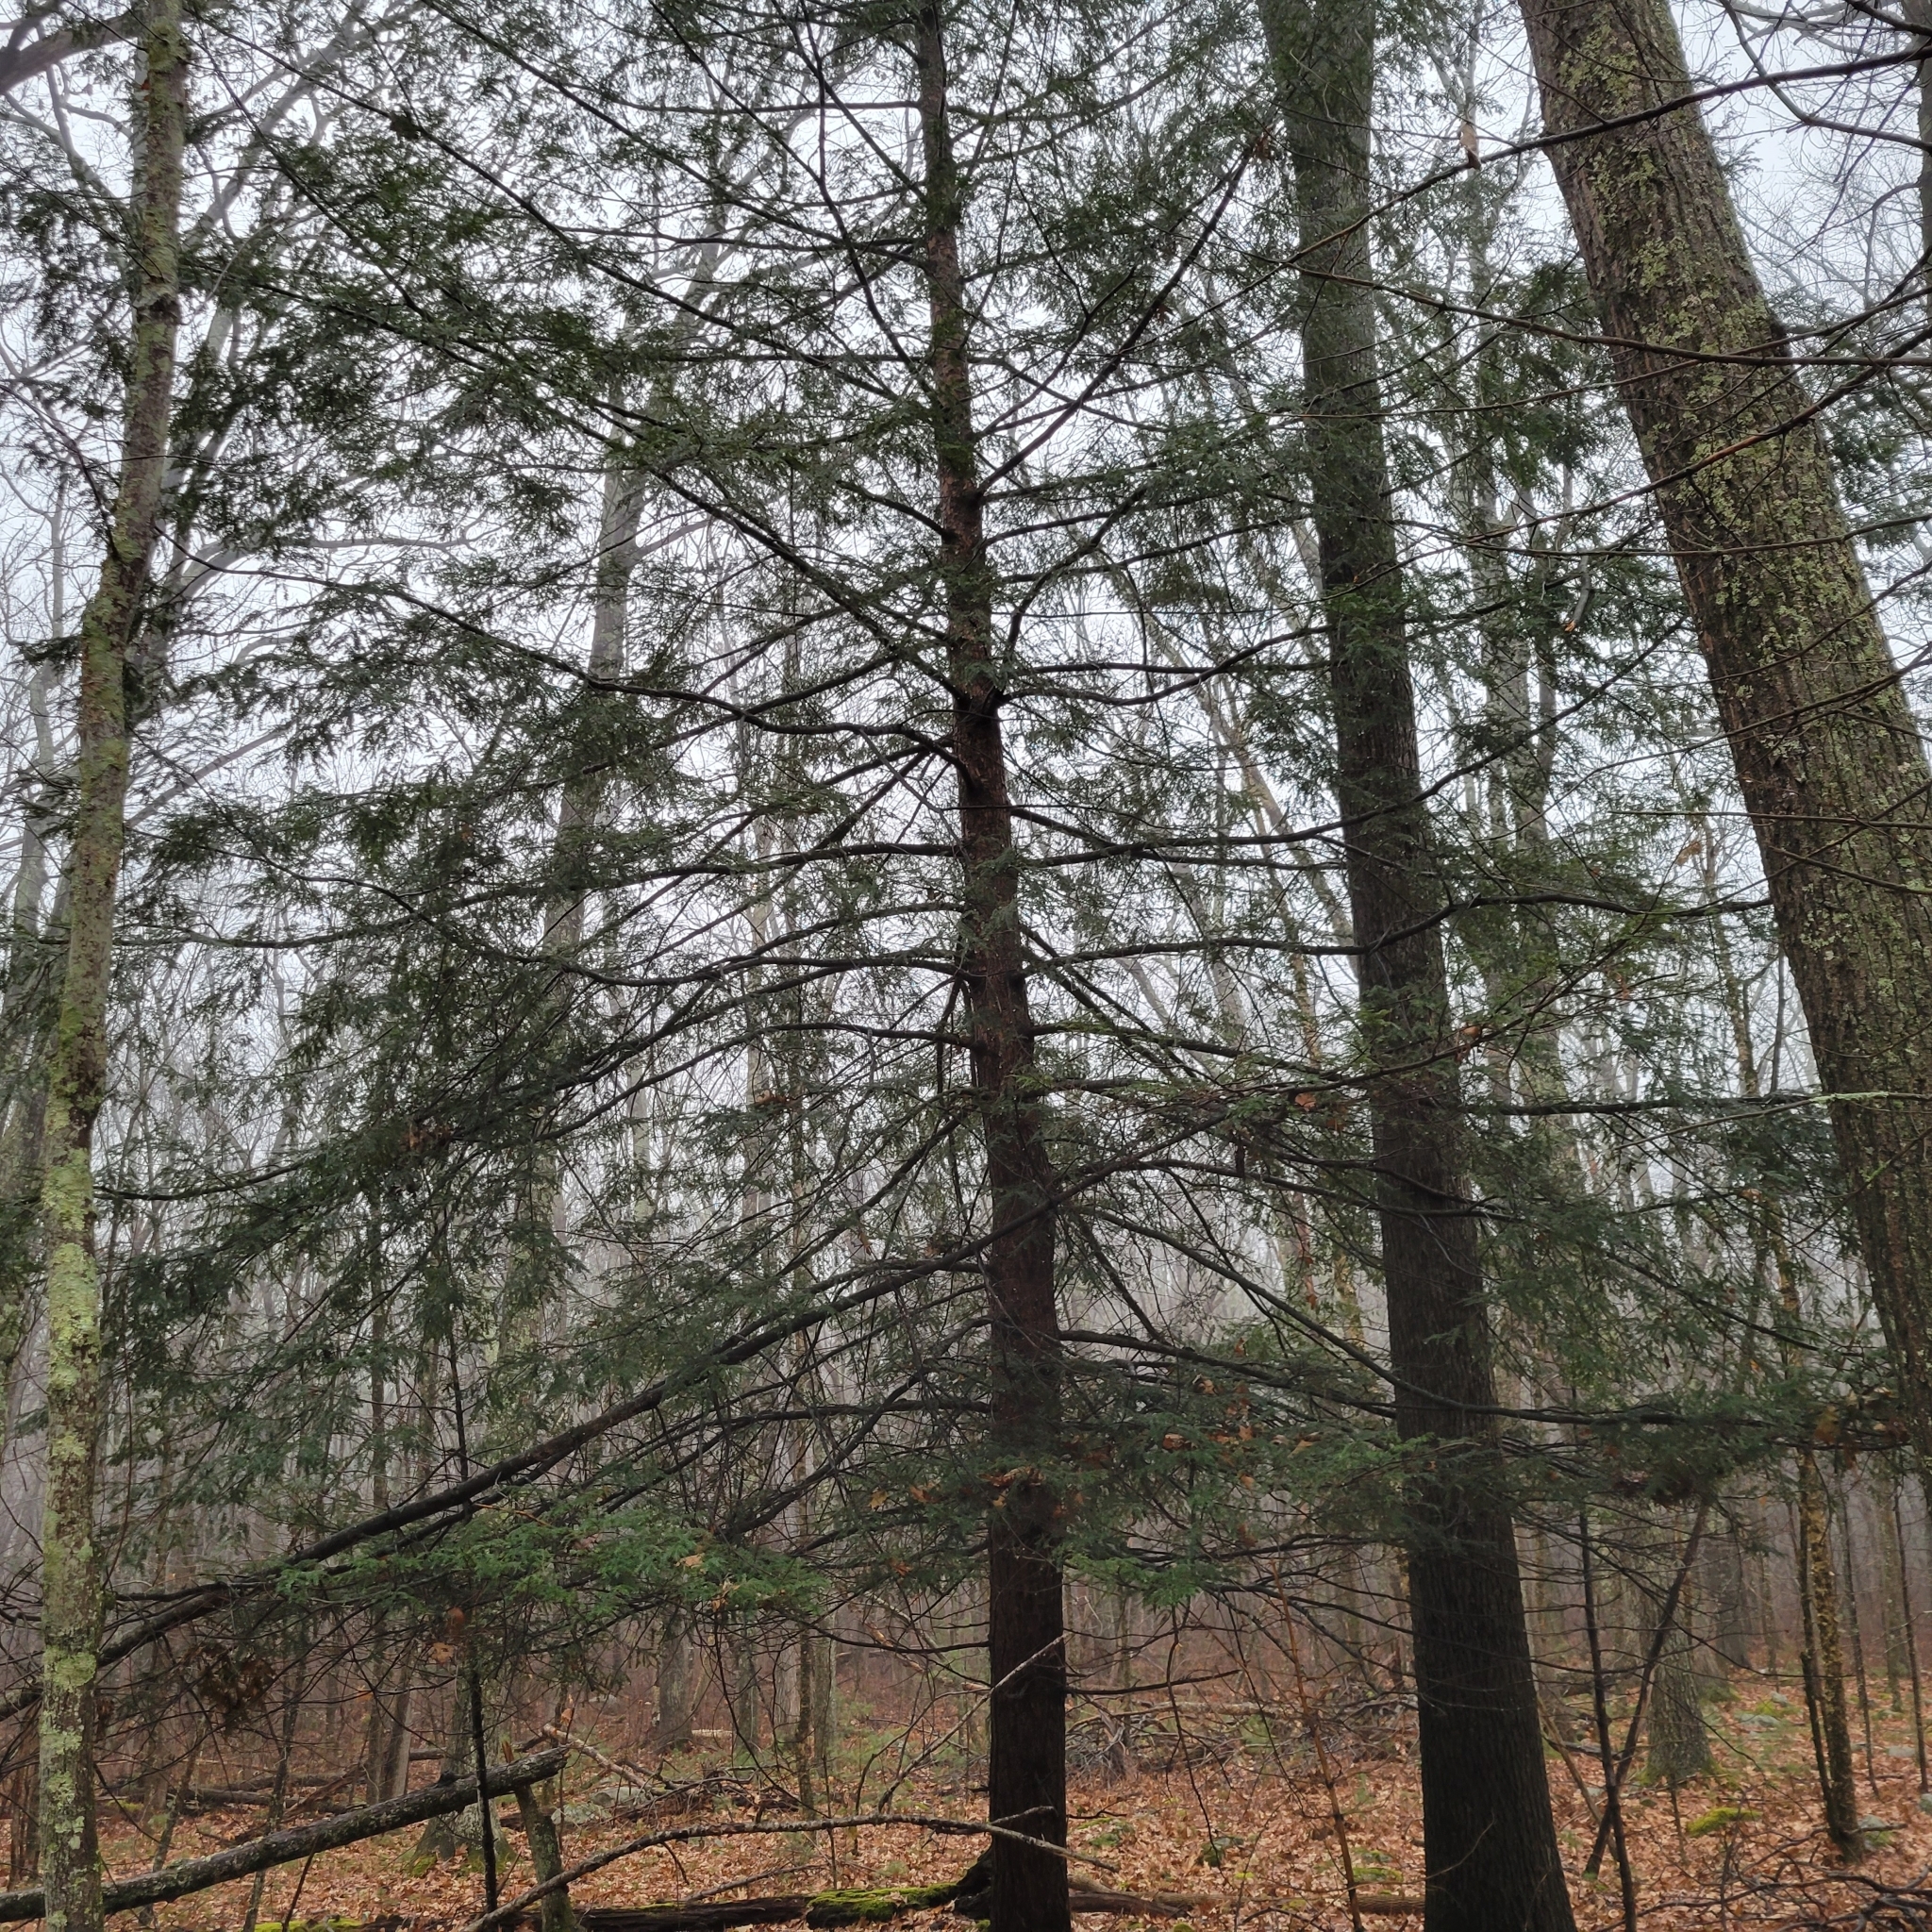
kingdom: Plantae
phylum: Tracheophyta
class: Pinopsida
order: Pinales
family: Pinaceae
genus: Tsuga
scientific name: Tsuga canadensis
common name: Eastern hemlock
